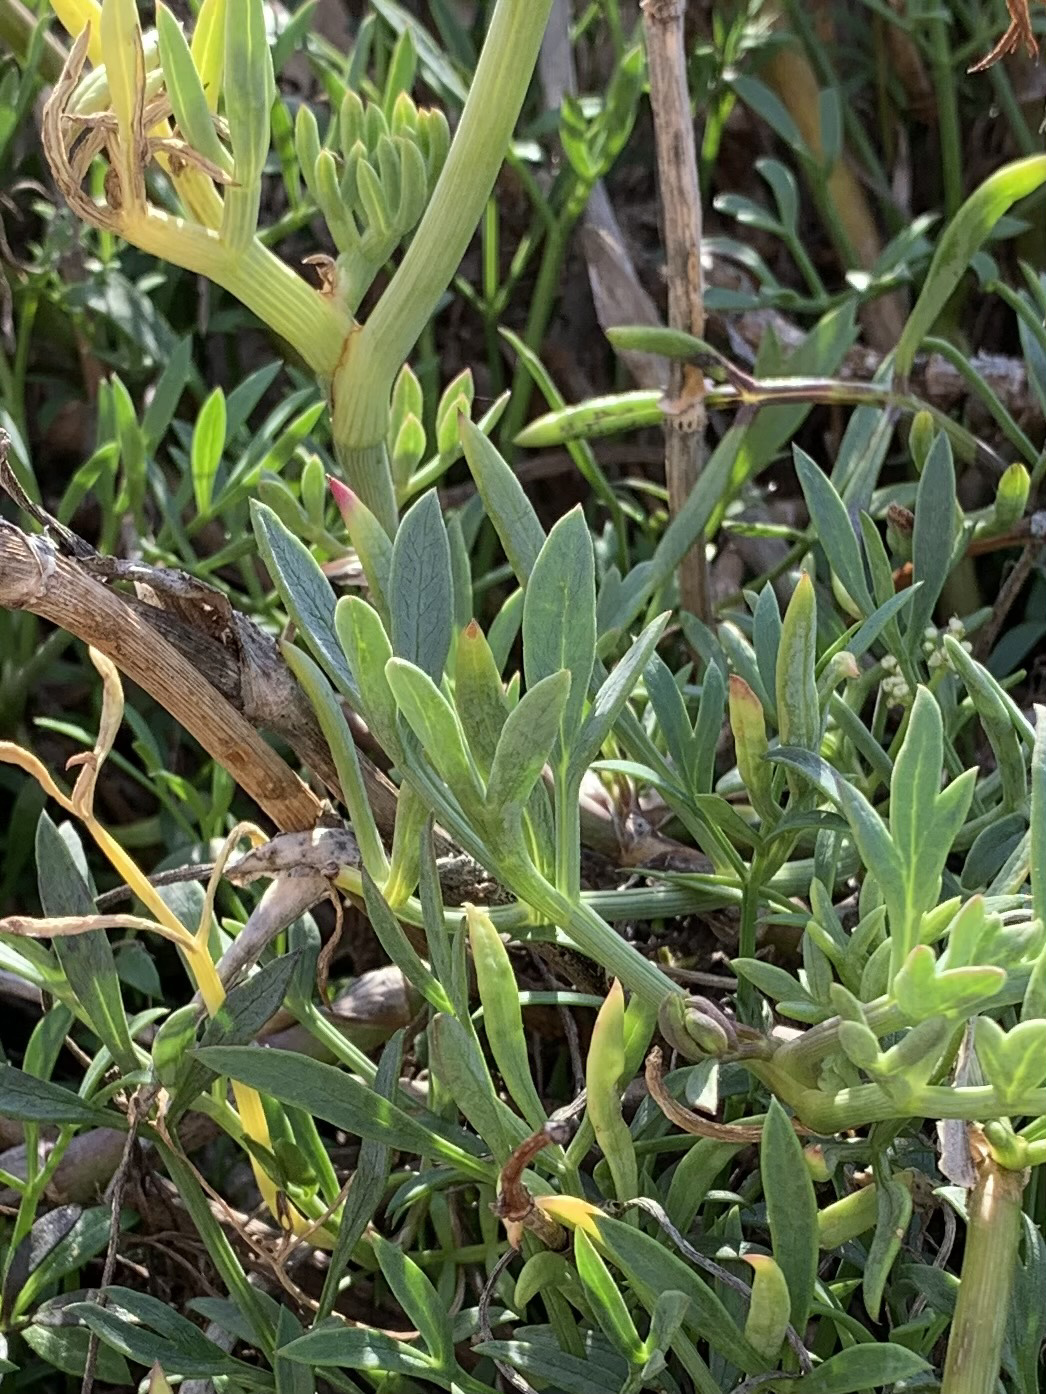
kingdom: Plantae
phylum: Tracheophyta
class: Magnoliopsida
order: Apiales
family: Apiaceae
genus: Crithmum
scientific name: Crithmum maritimum
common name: Rock samphire
